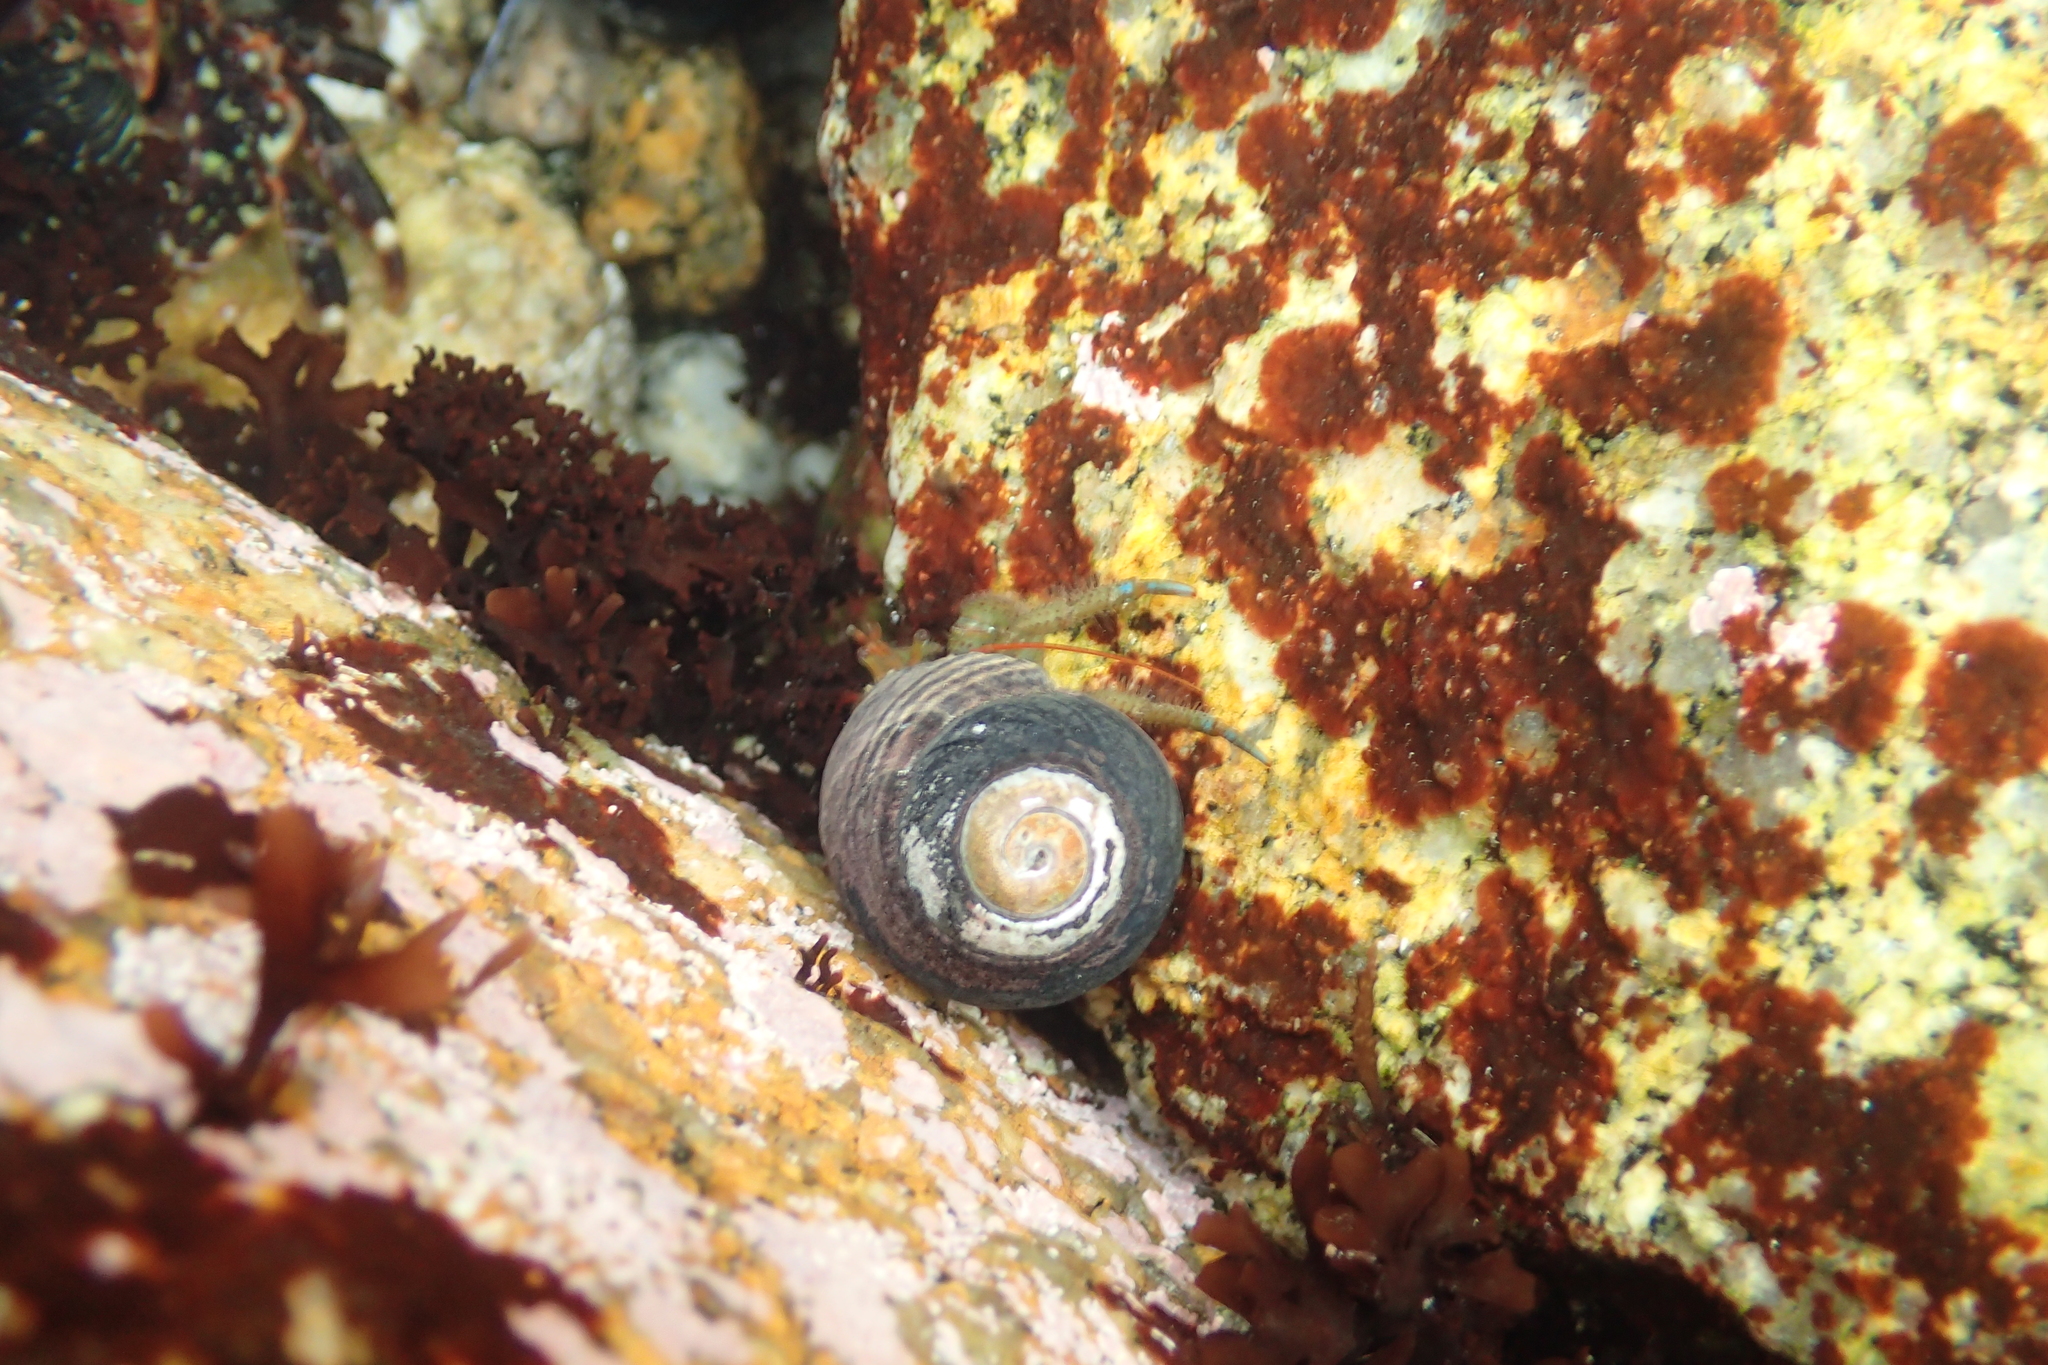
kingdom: Animalia
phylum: Arthropoda
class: Malacostraca
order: Decapoda
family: Paguridae
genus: Pagurus
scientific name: Pagurus samuelis
